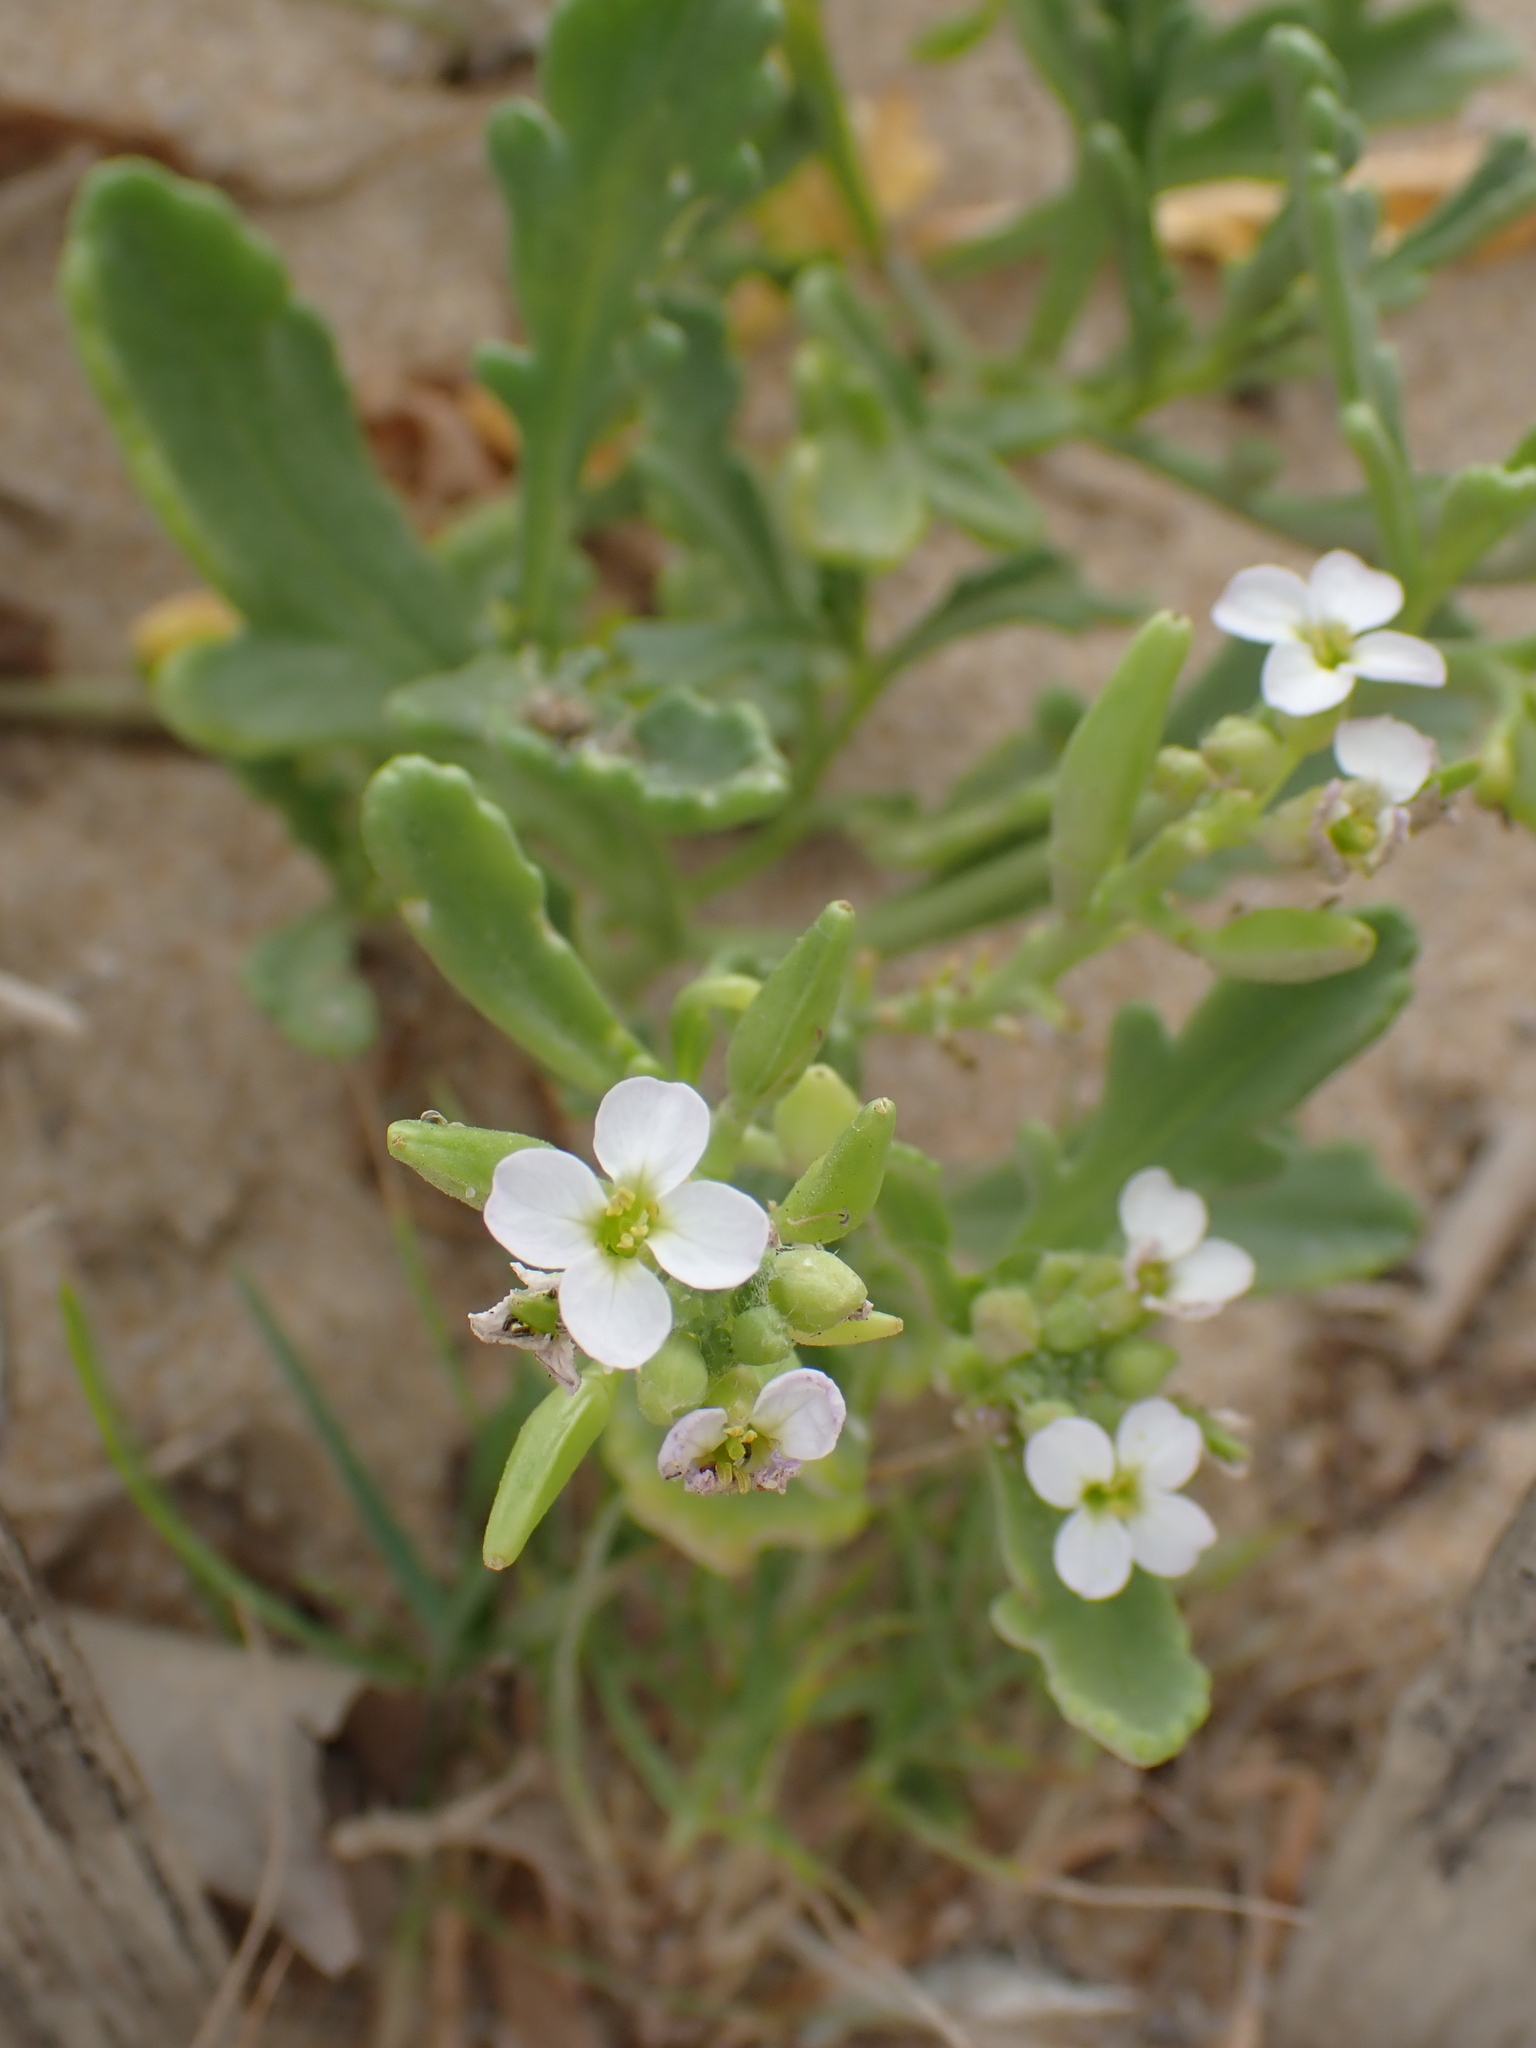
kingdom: Plantae
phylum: Tracheophyta
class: Magnoliopsida
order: Brassicales
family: Brassicaceae
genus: Cakile
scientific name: Cakile maritima
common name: Sea rocket
